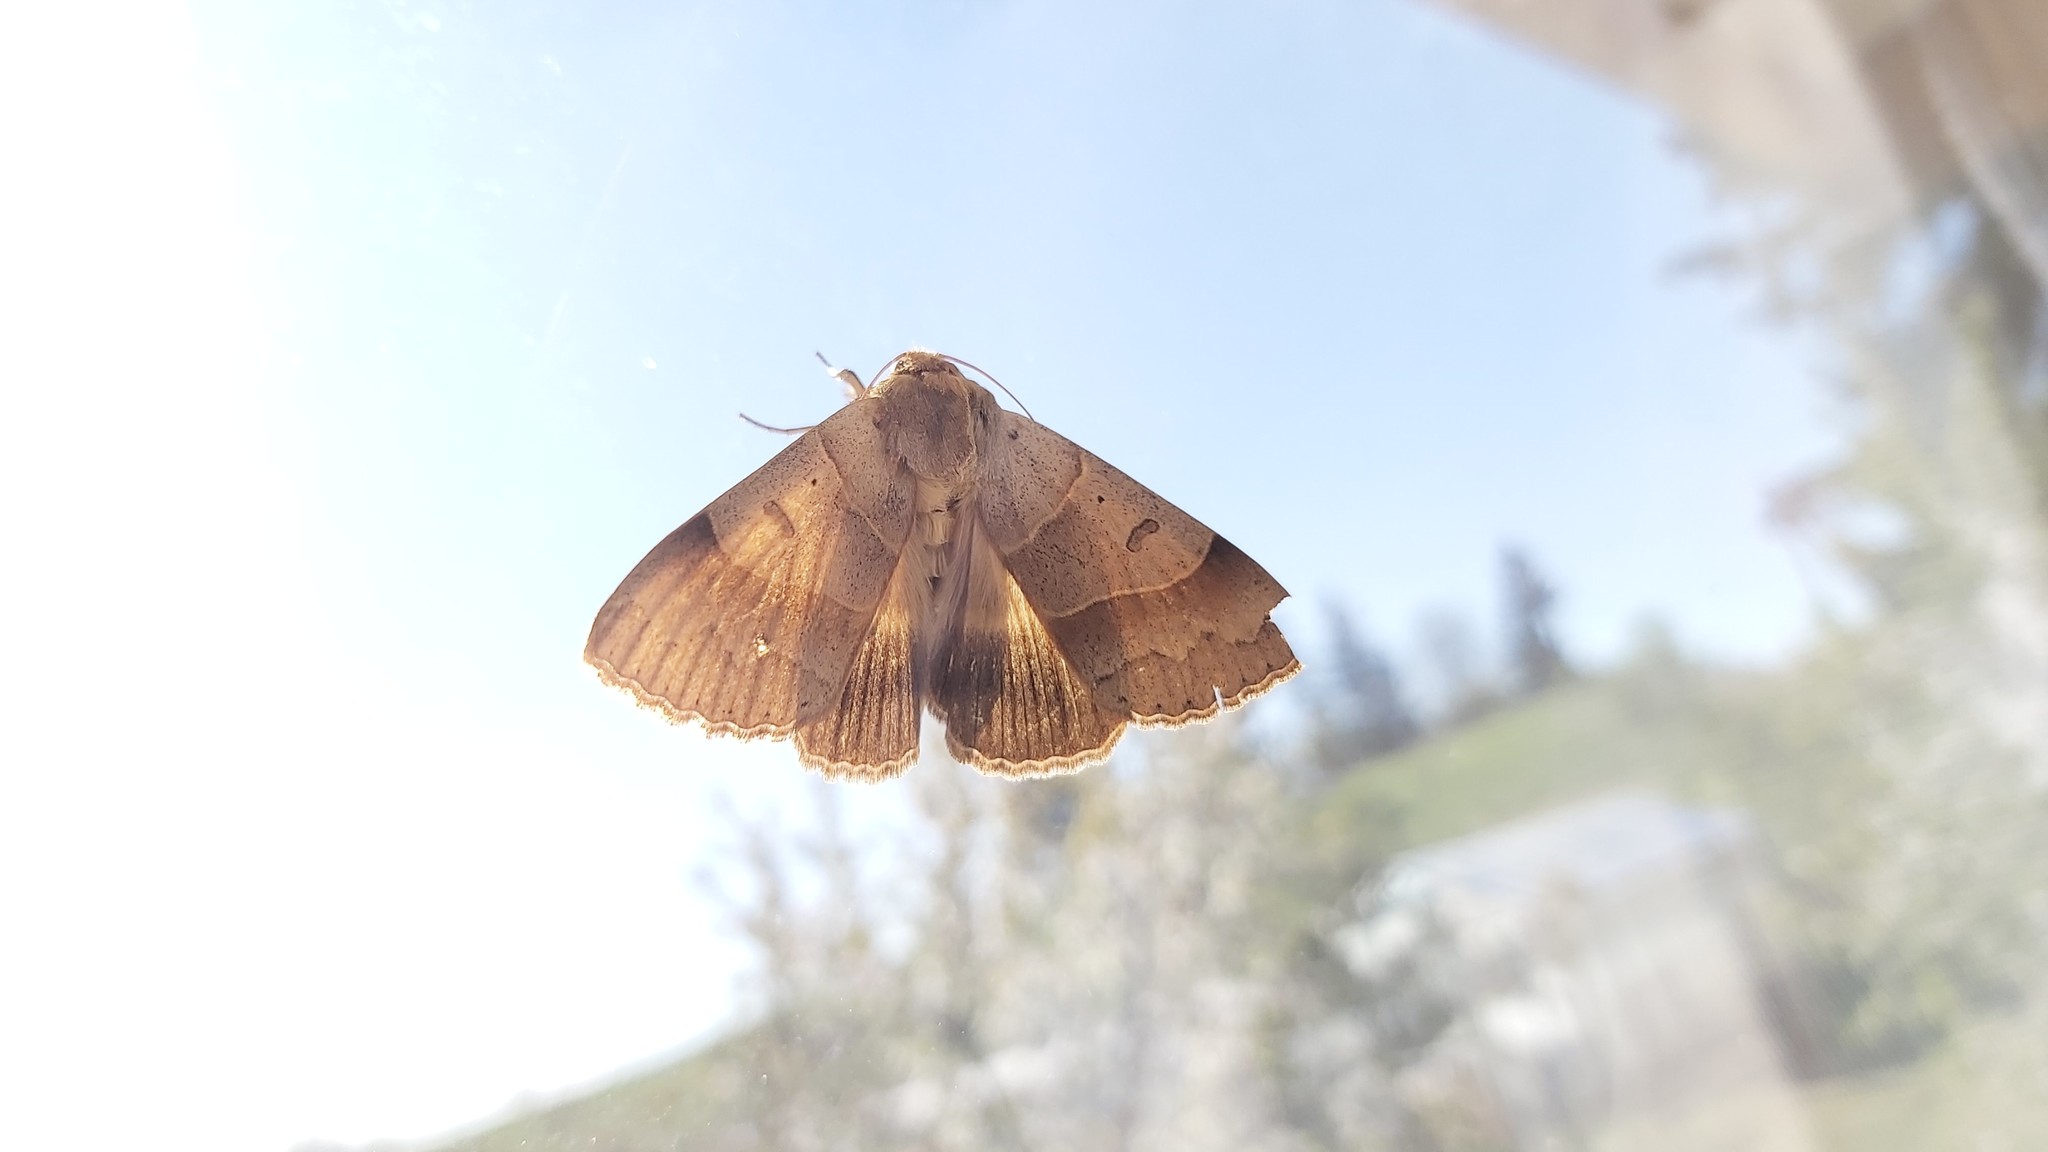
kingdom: Animalia
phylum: Arthropoda
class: Insecta
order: Lepidoptera
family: Erebidae
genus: Minucia
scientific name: Minucia lunaris
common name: Lunar double-stripe
